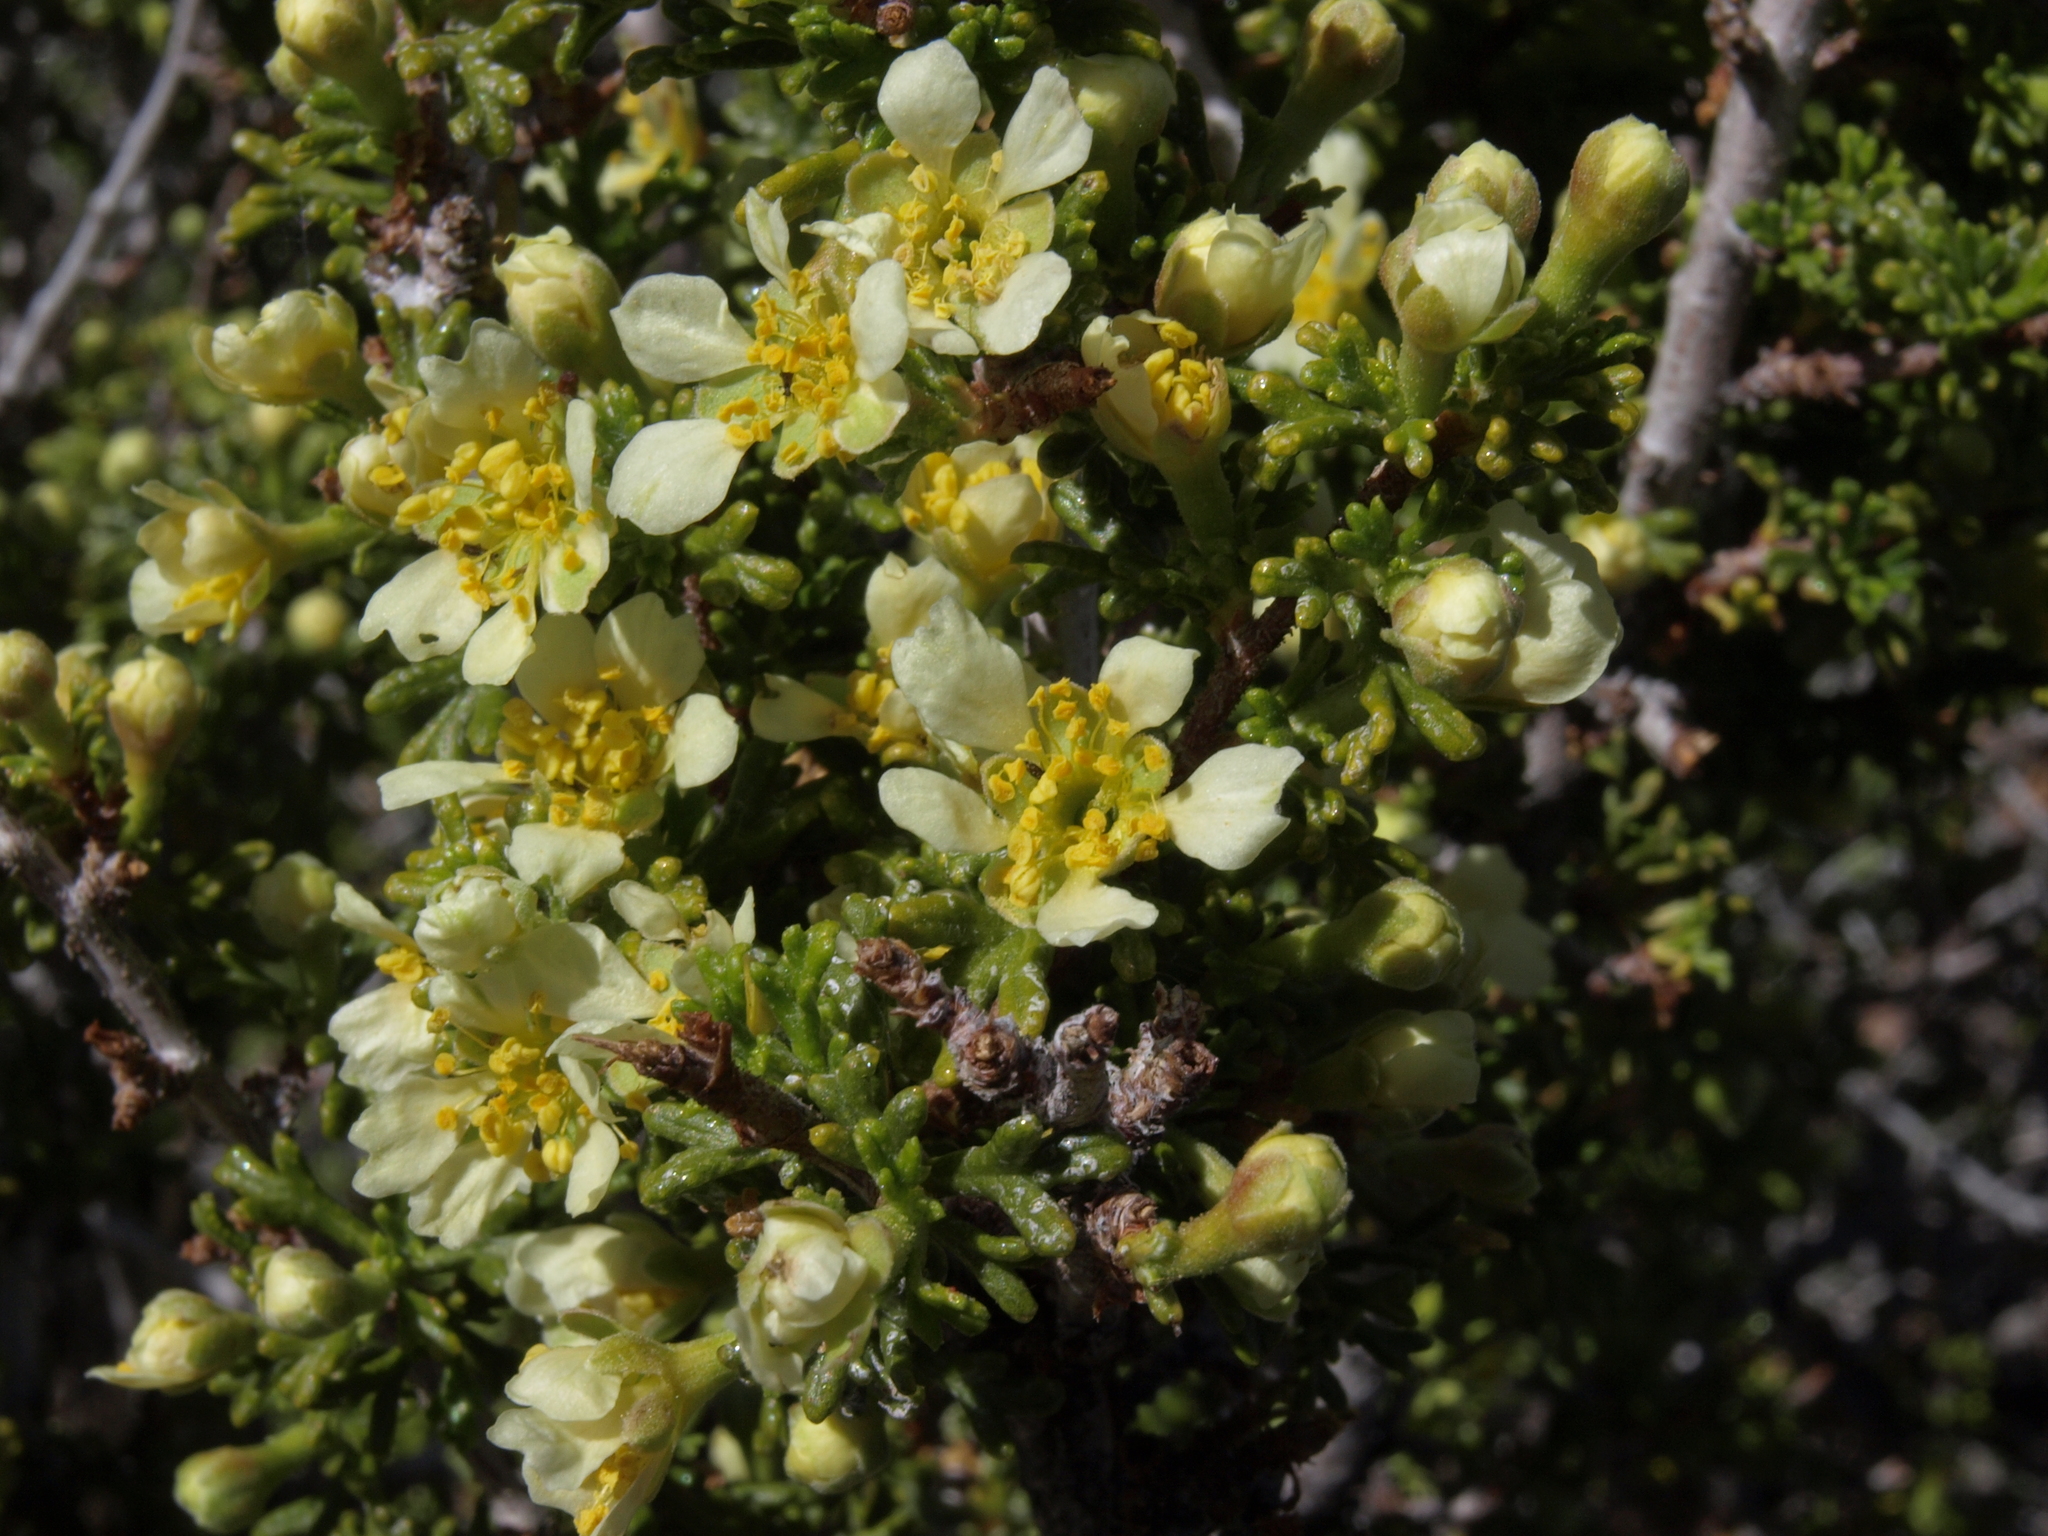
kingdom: Plantae
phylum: Tracheophyta
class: Magnoliopsida
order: Rosales
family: Rosaceae
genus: Purshia
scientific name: Purshia glandulosa
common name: Desert bitterbrush
